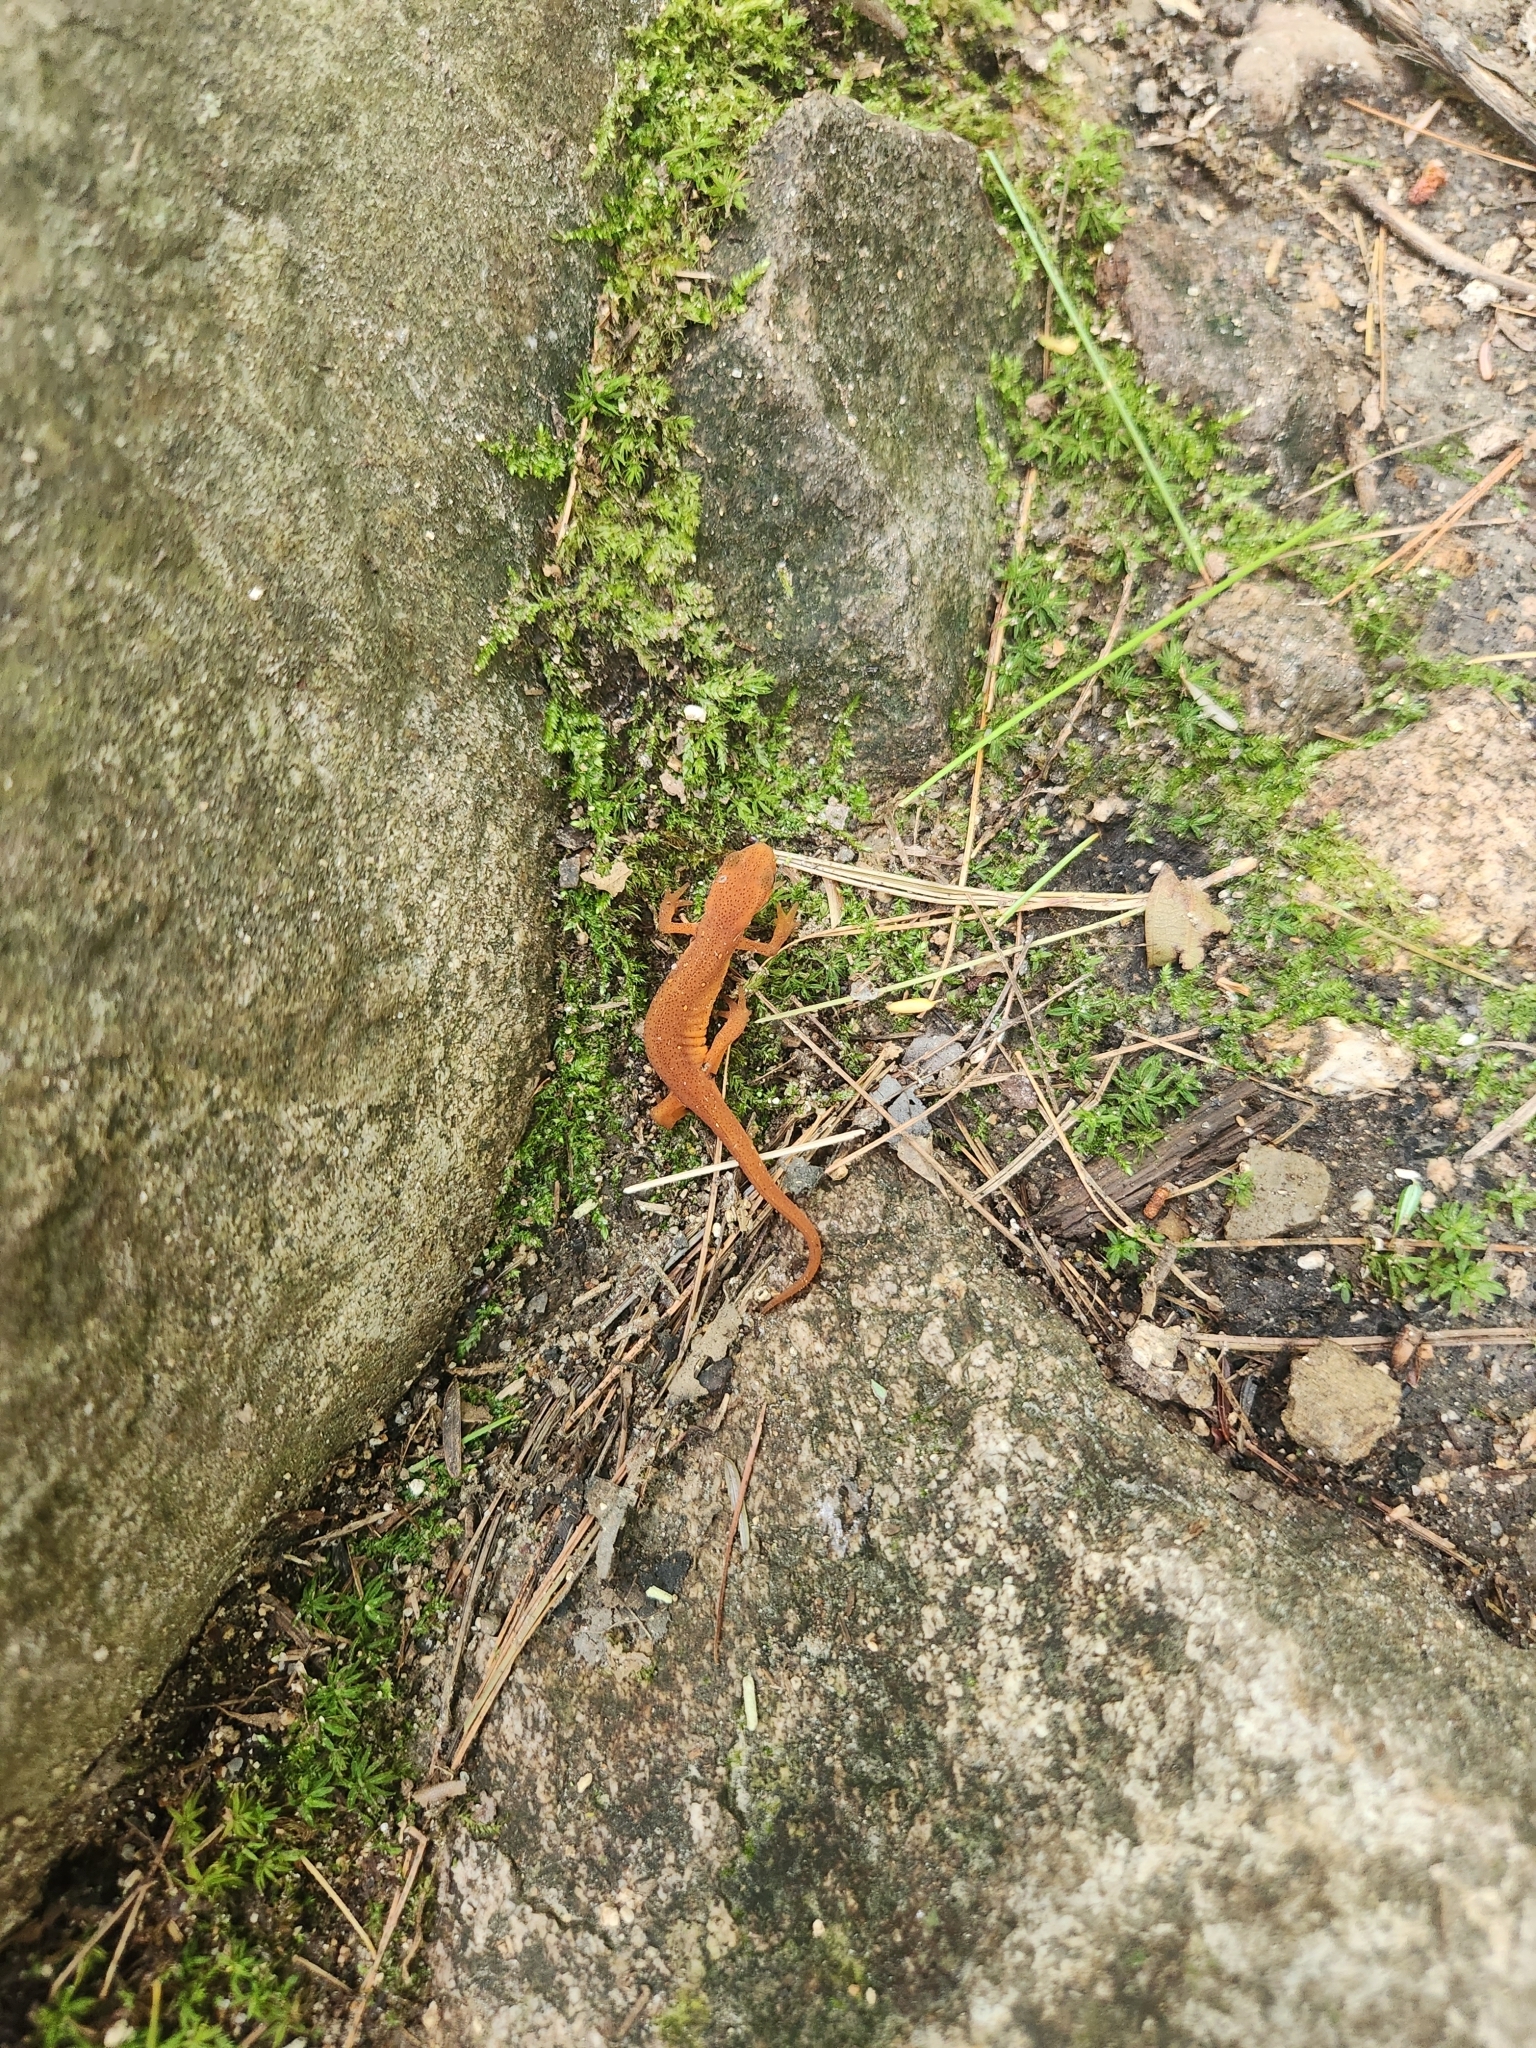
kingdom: Animalia
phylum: Chordata
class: Amphibia
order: Caudata
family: Salamandridae
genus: Notophthalmus
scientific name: Notophthalmus viridescens
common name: Eastern newt
